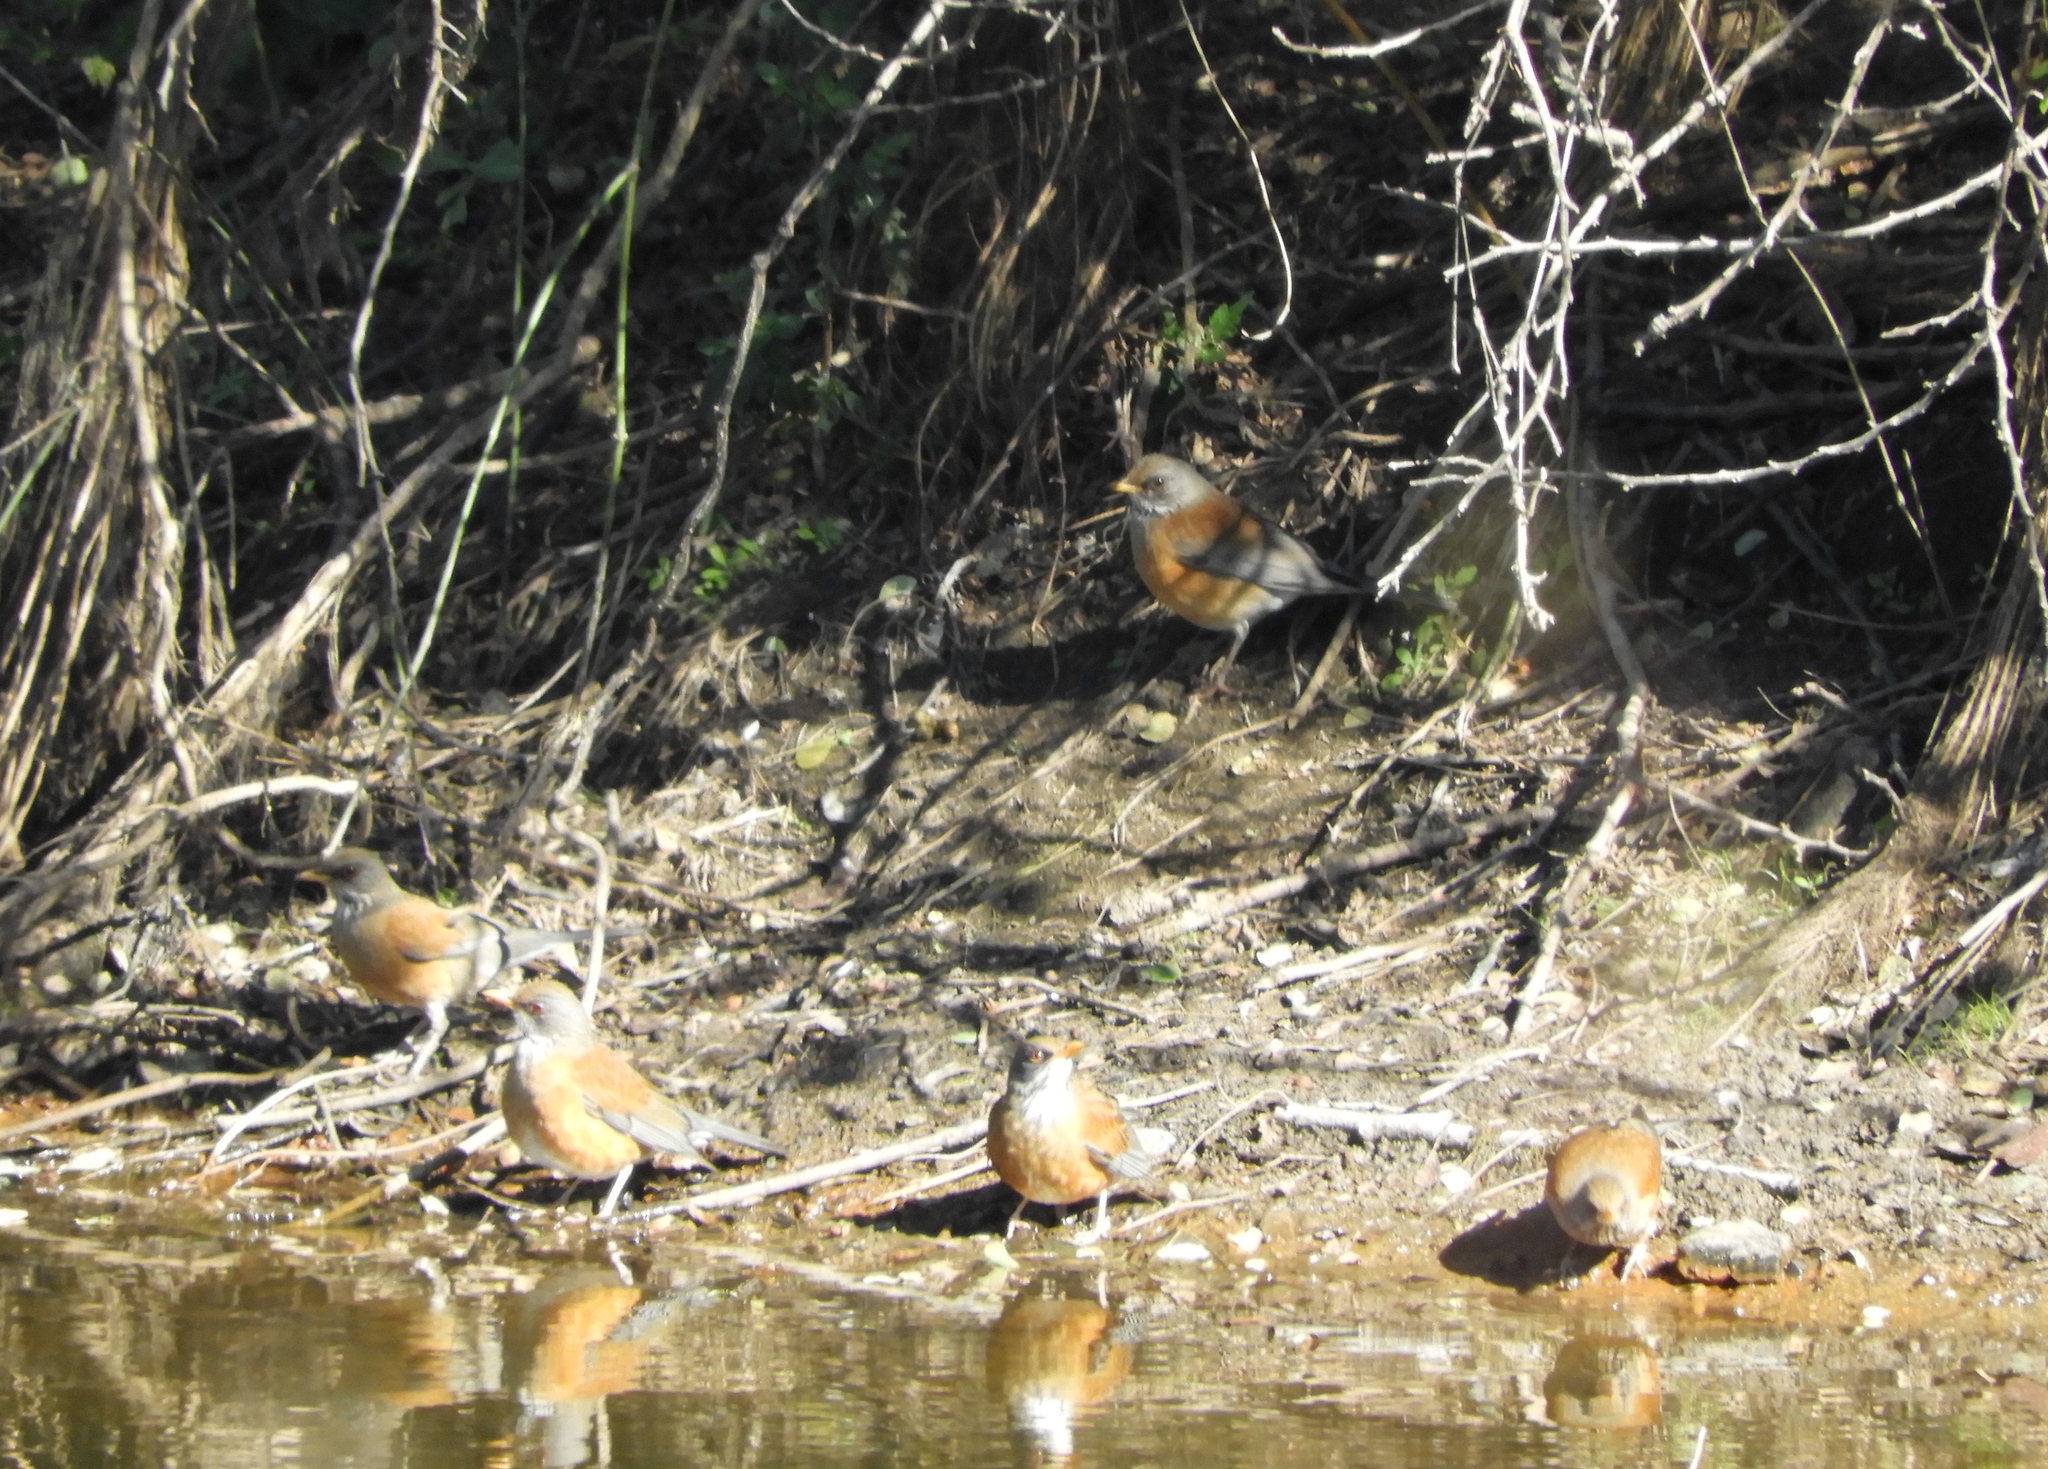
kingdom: Animalia
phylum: Chordata
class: Aves
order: Passeriformes
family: Turdidae
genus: Turdus
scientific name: Turdus rufopalliatus
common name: Rufous-backed robin
